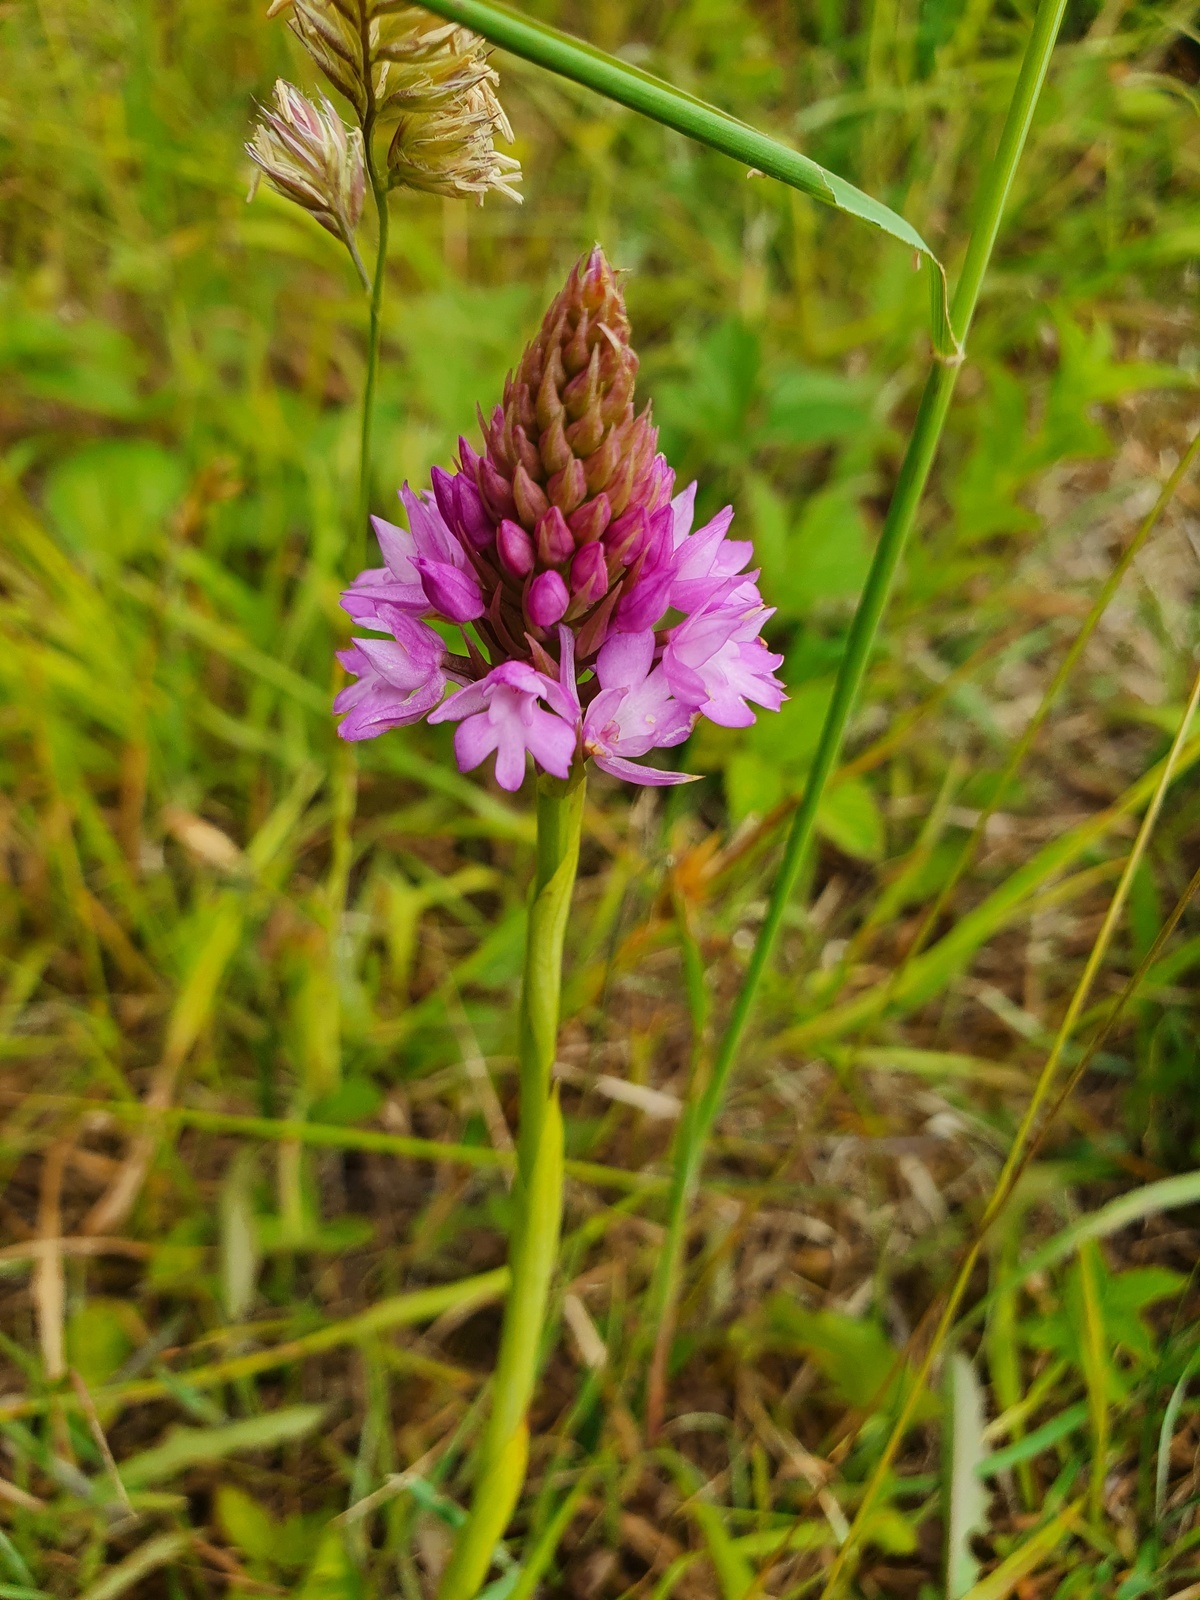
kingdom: Plantae
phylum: Tracheophyta
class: Liliopsida
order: Asparagales
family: Orchidaceae
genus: Anacamptis
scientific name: Anacamptis pyramidalis
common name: Pyramidal orchid
